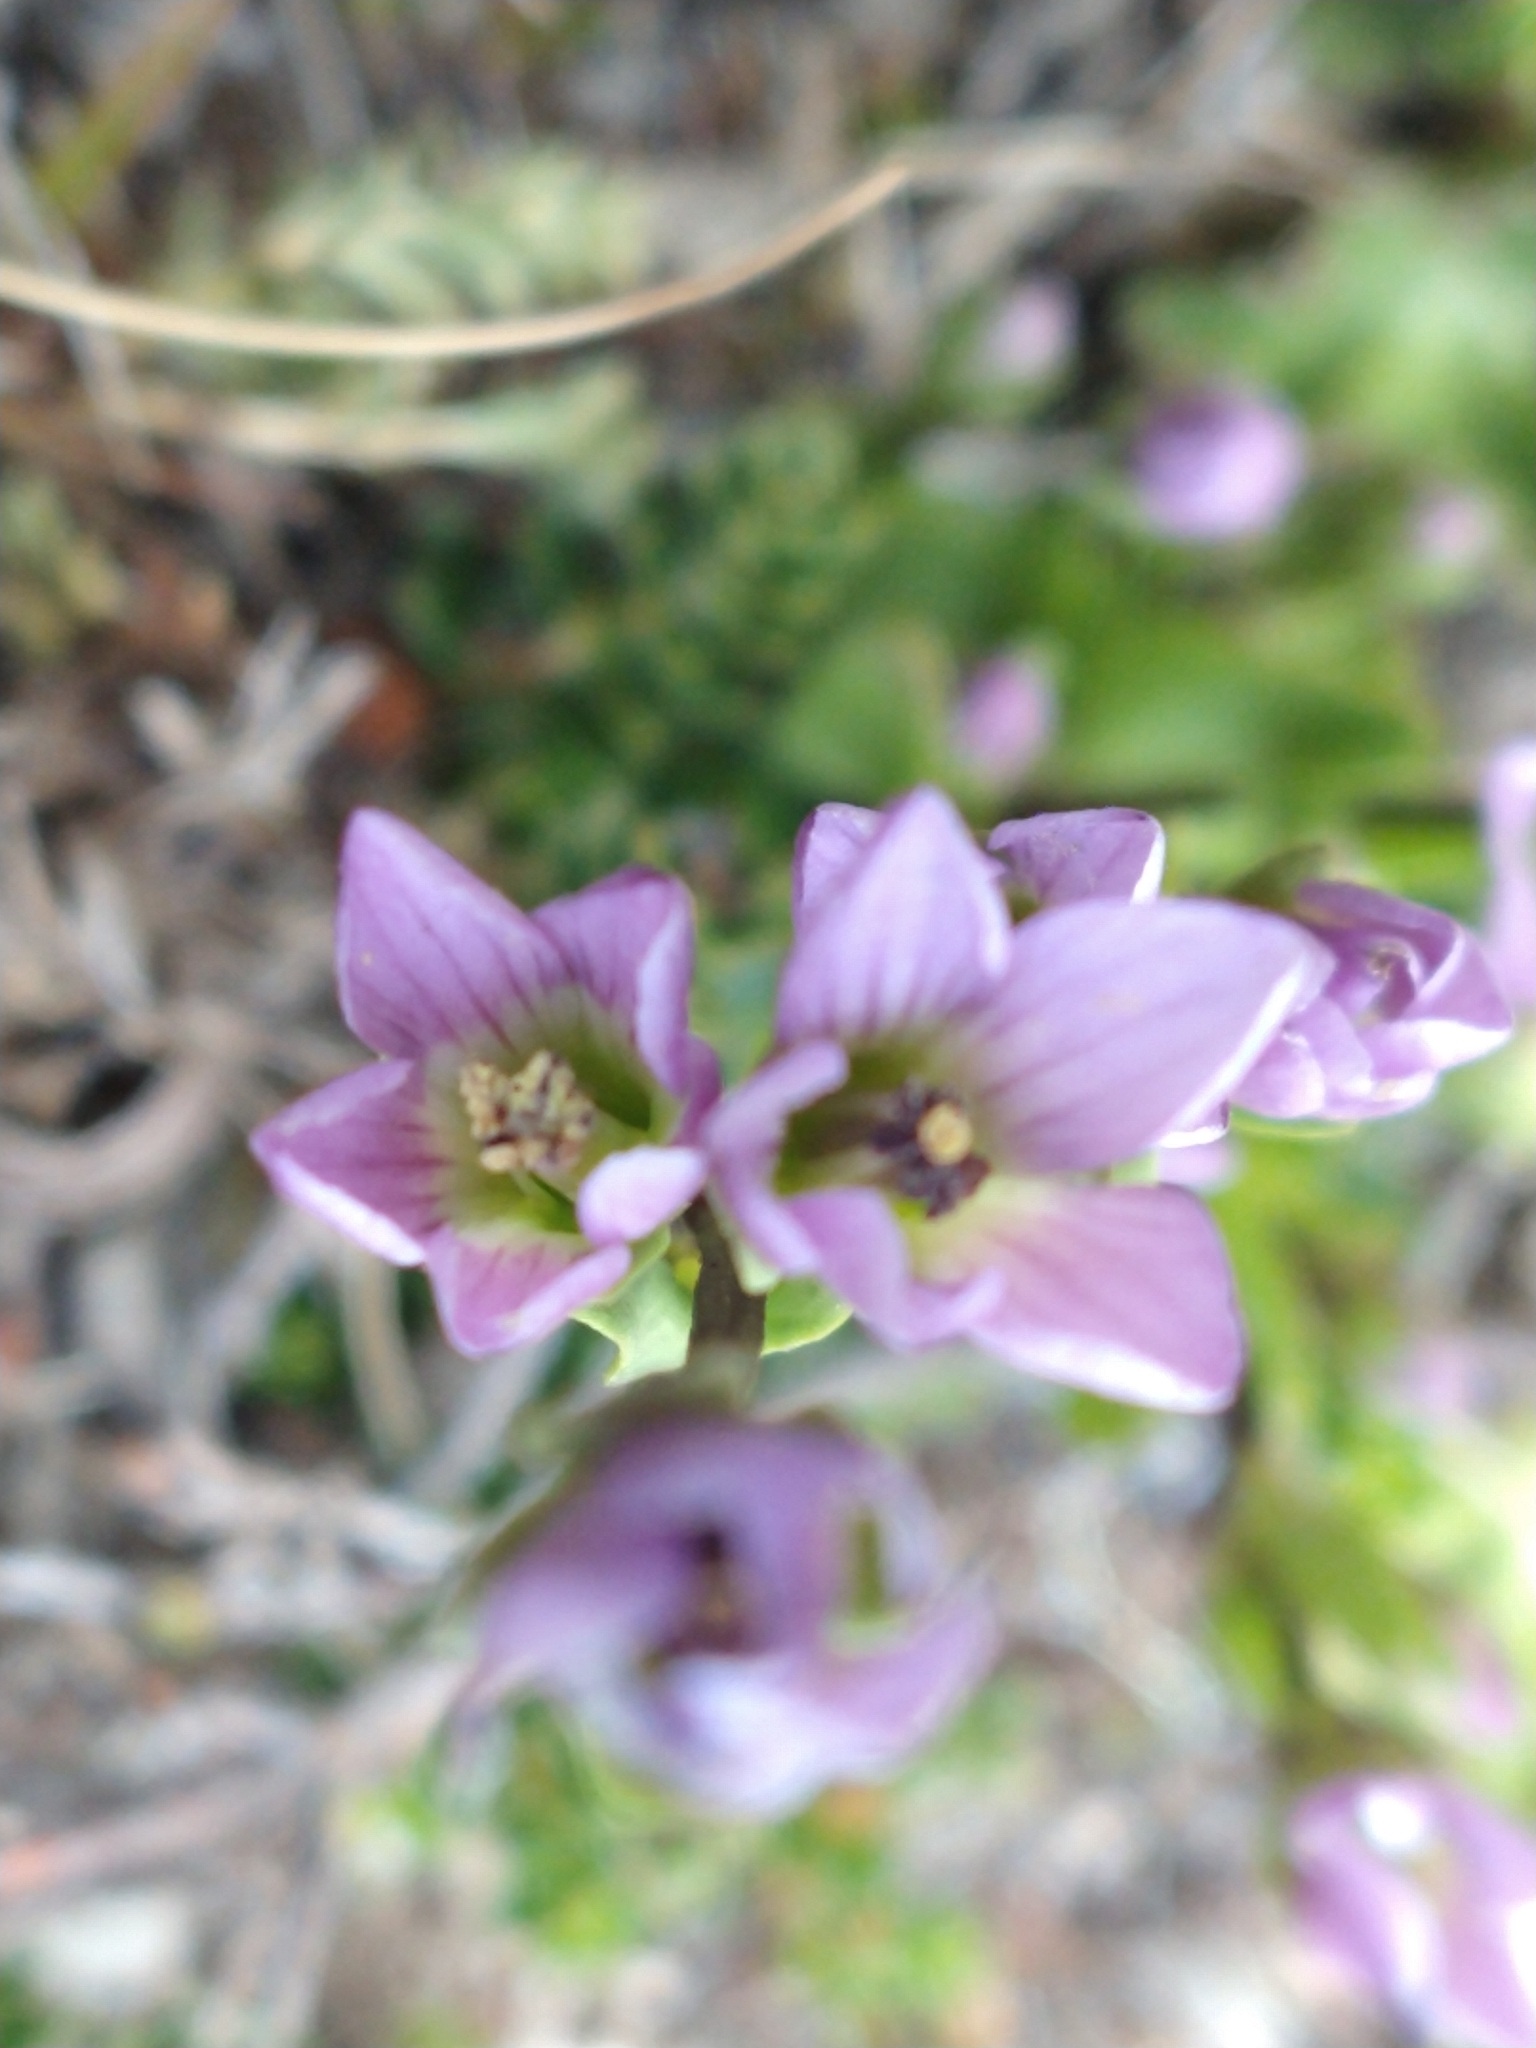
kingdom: Plantae
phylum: Tracheophyta
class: Magnoliopsida
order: Gentianales
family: Gentianaceae
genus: Gentianella
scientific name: Gentianella magellanica
